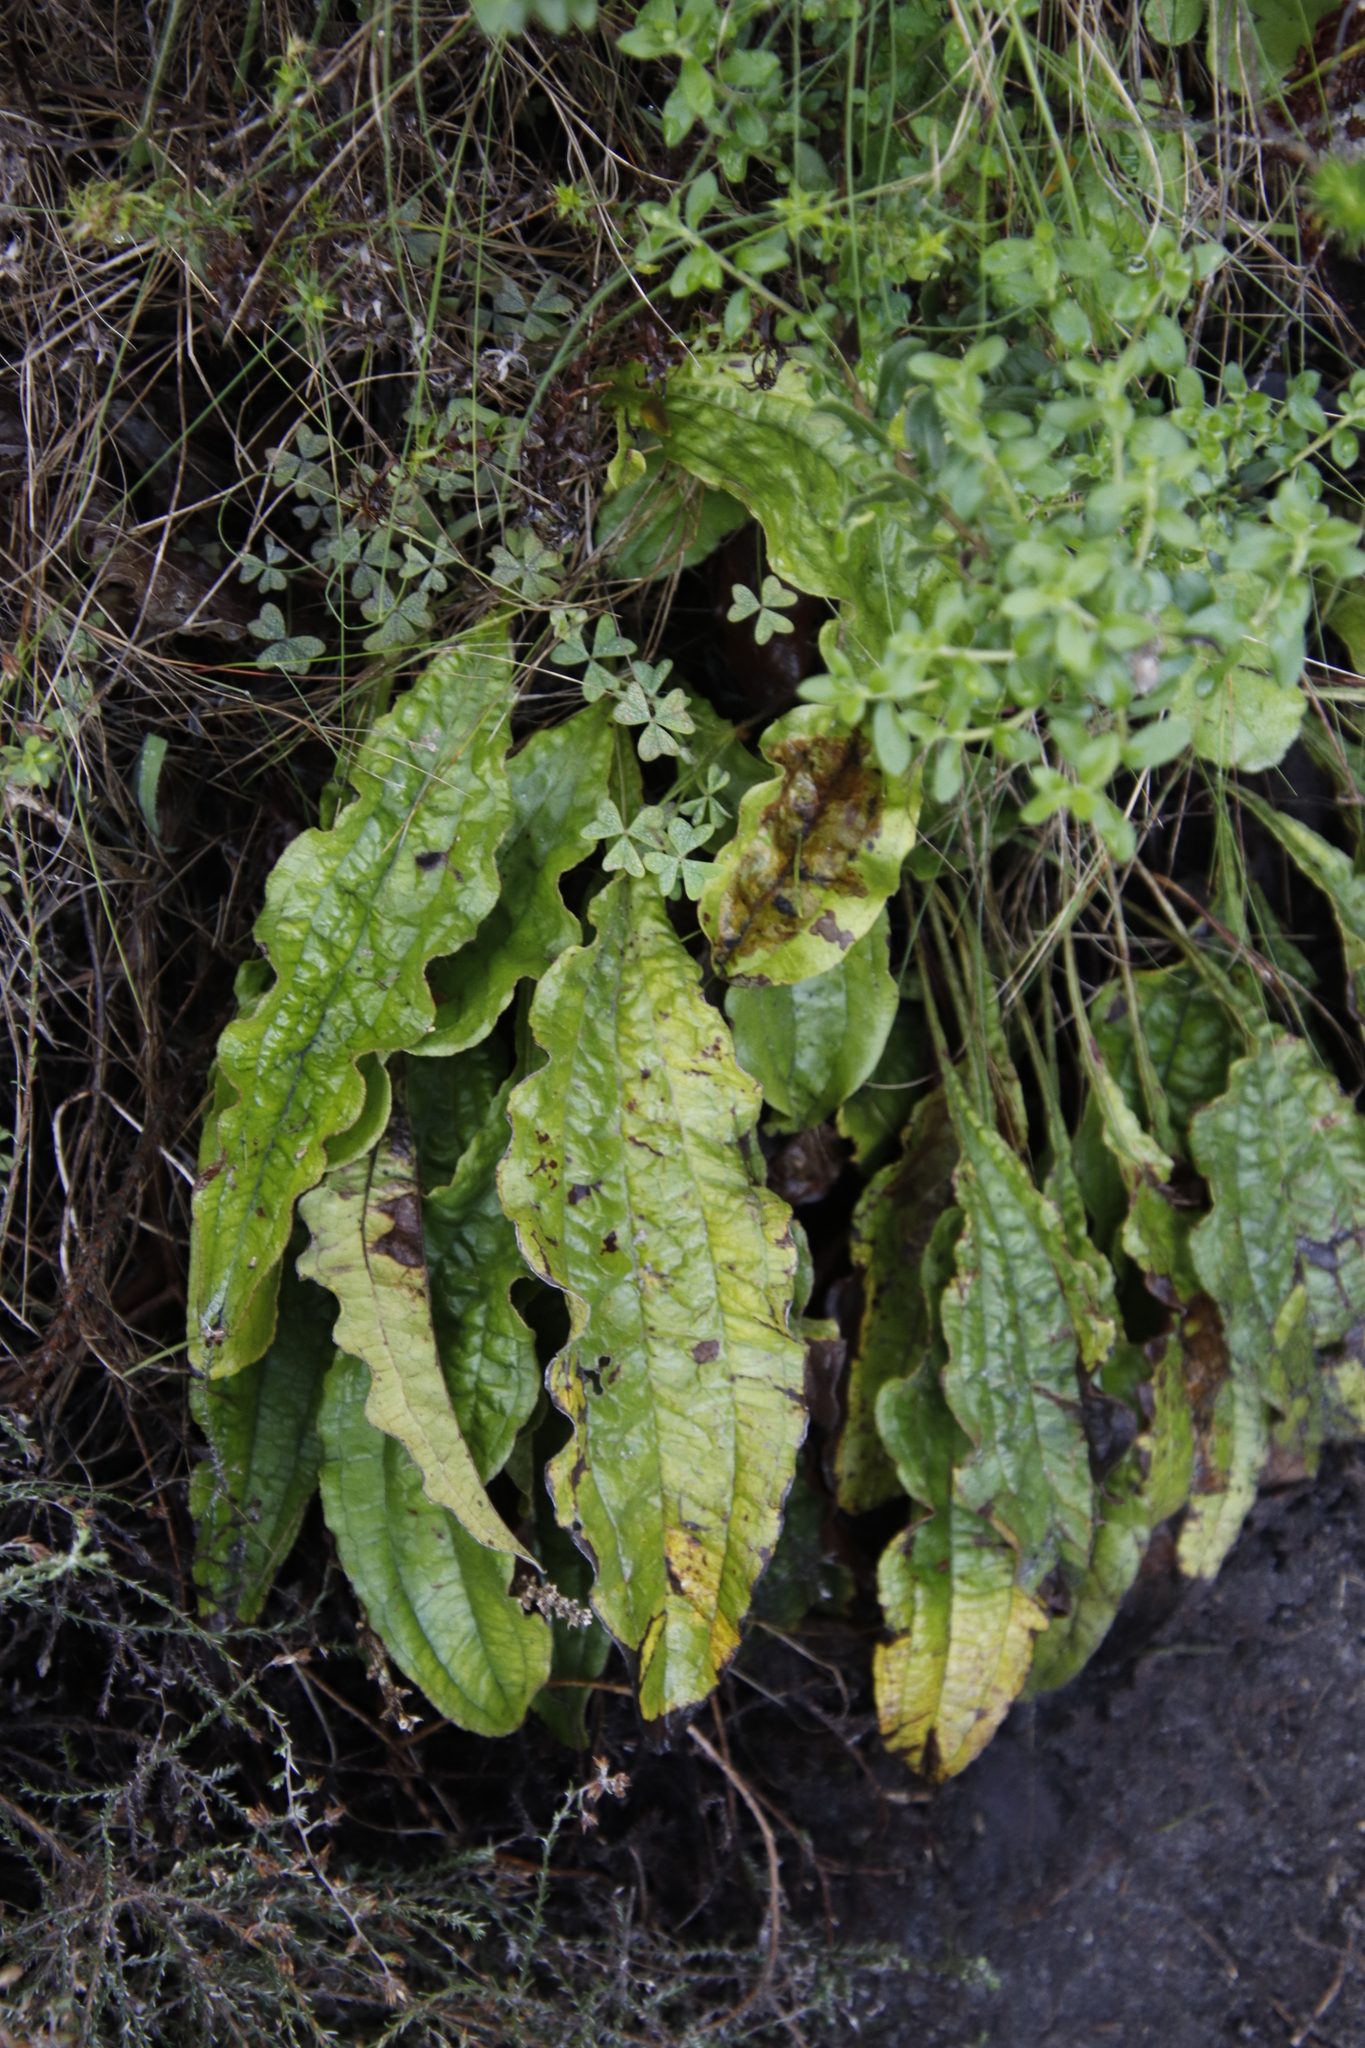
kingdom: Plantae
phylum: Tracheophyta
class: Magnoliopsida
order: Asterales
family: Asteraceae
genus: Helichrysum
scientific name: Helichrysum nudifolium
